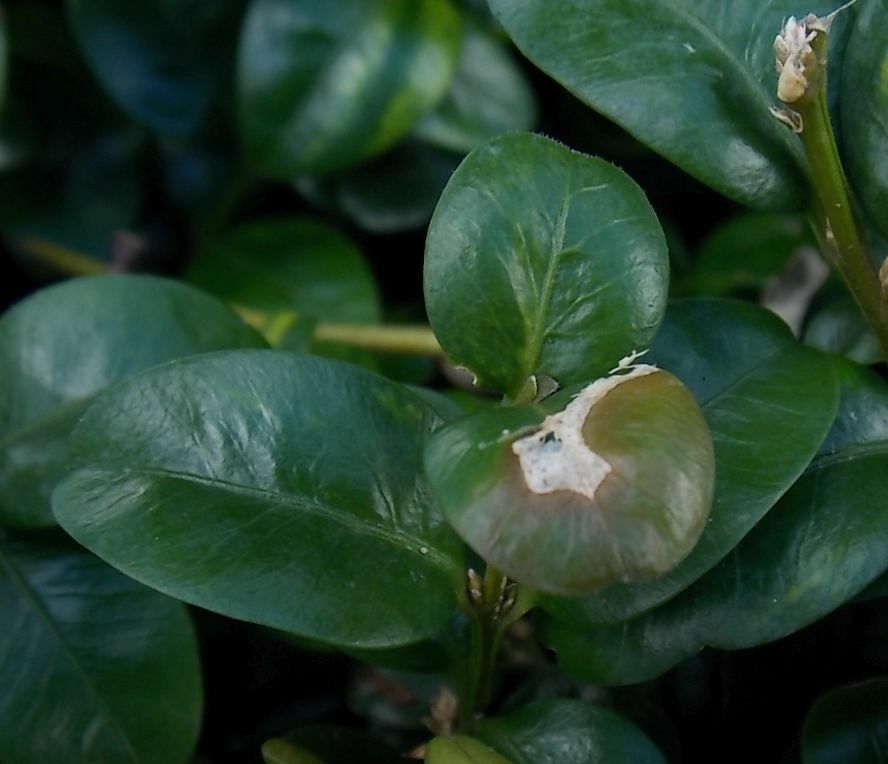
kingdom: Fungi
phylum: Ascomycota
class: Sordariomycetes
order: Hypocreales
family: Nectriaceae
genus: Calonectria
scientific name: Calonectria pseudonaviculata
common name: Boxwood blight
